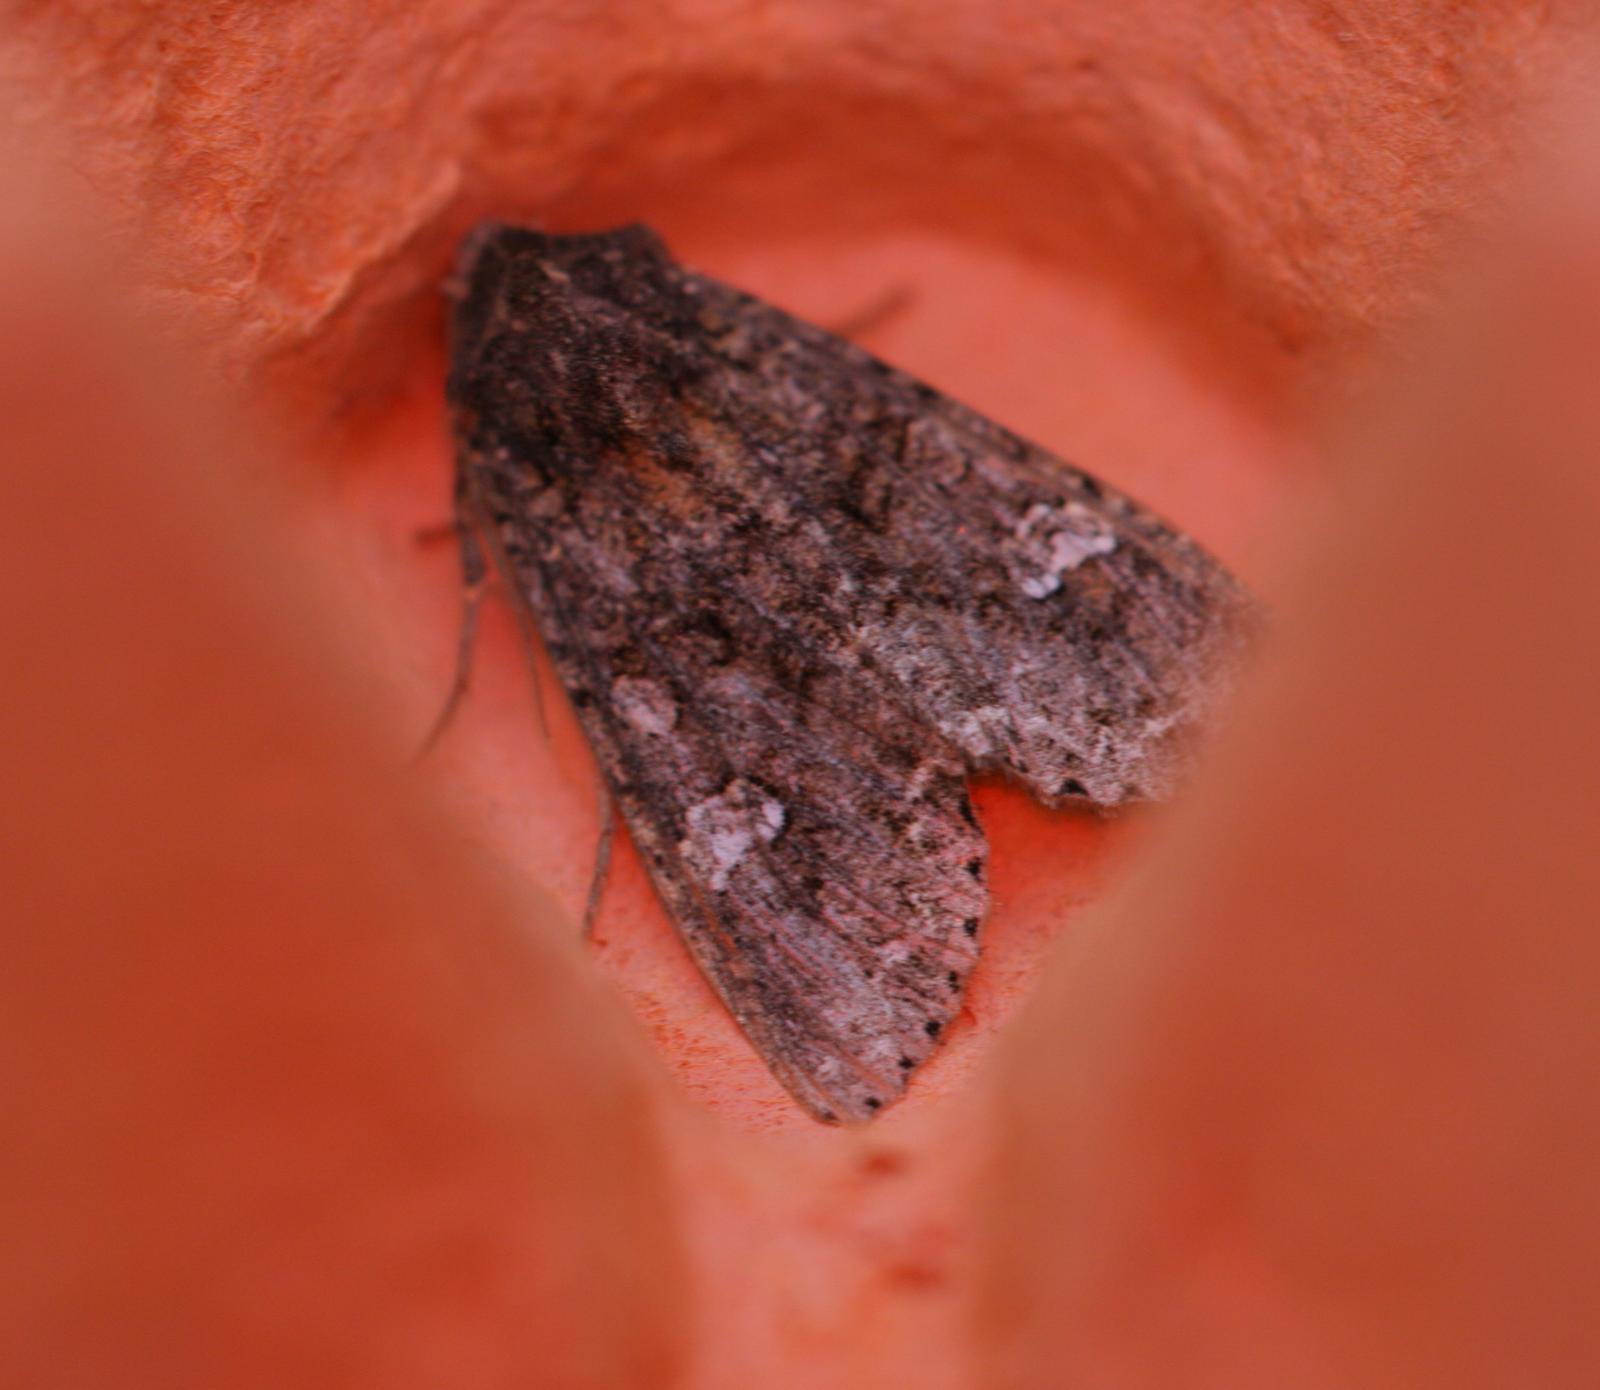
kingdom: Animalia
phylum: Arthropoda
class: Insecta
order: Lepidoptera
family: Noctuidae
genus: Mamestra
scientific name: Mamestra brassicae
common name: Cabbage moth
